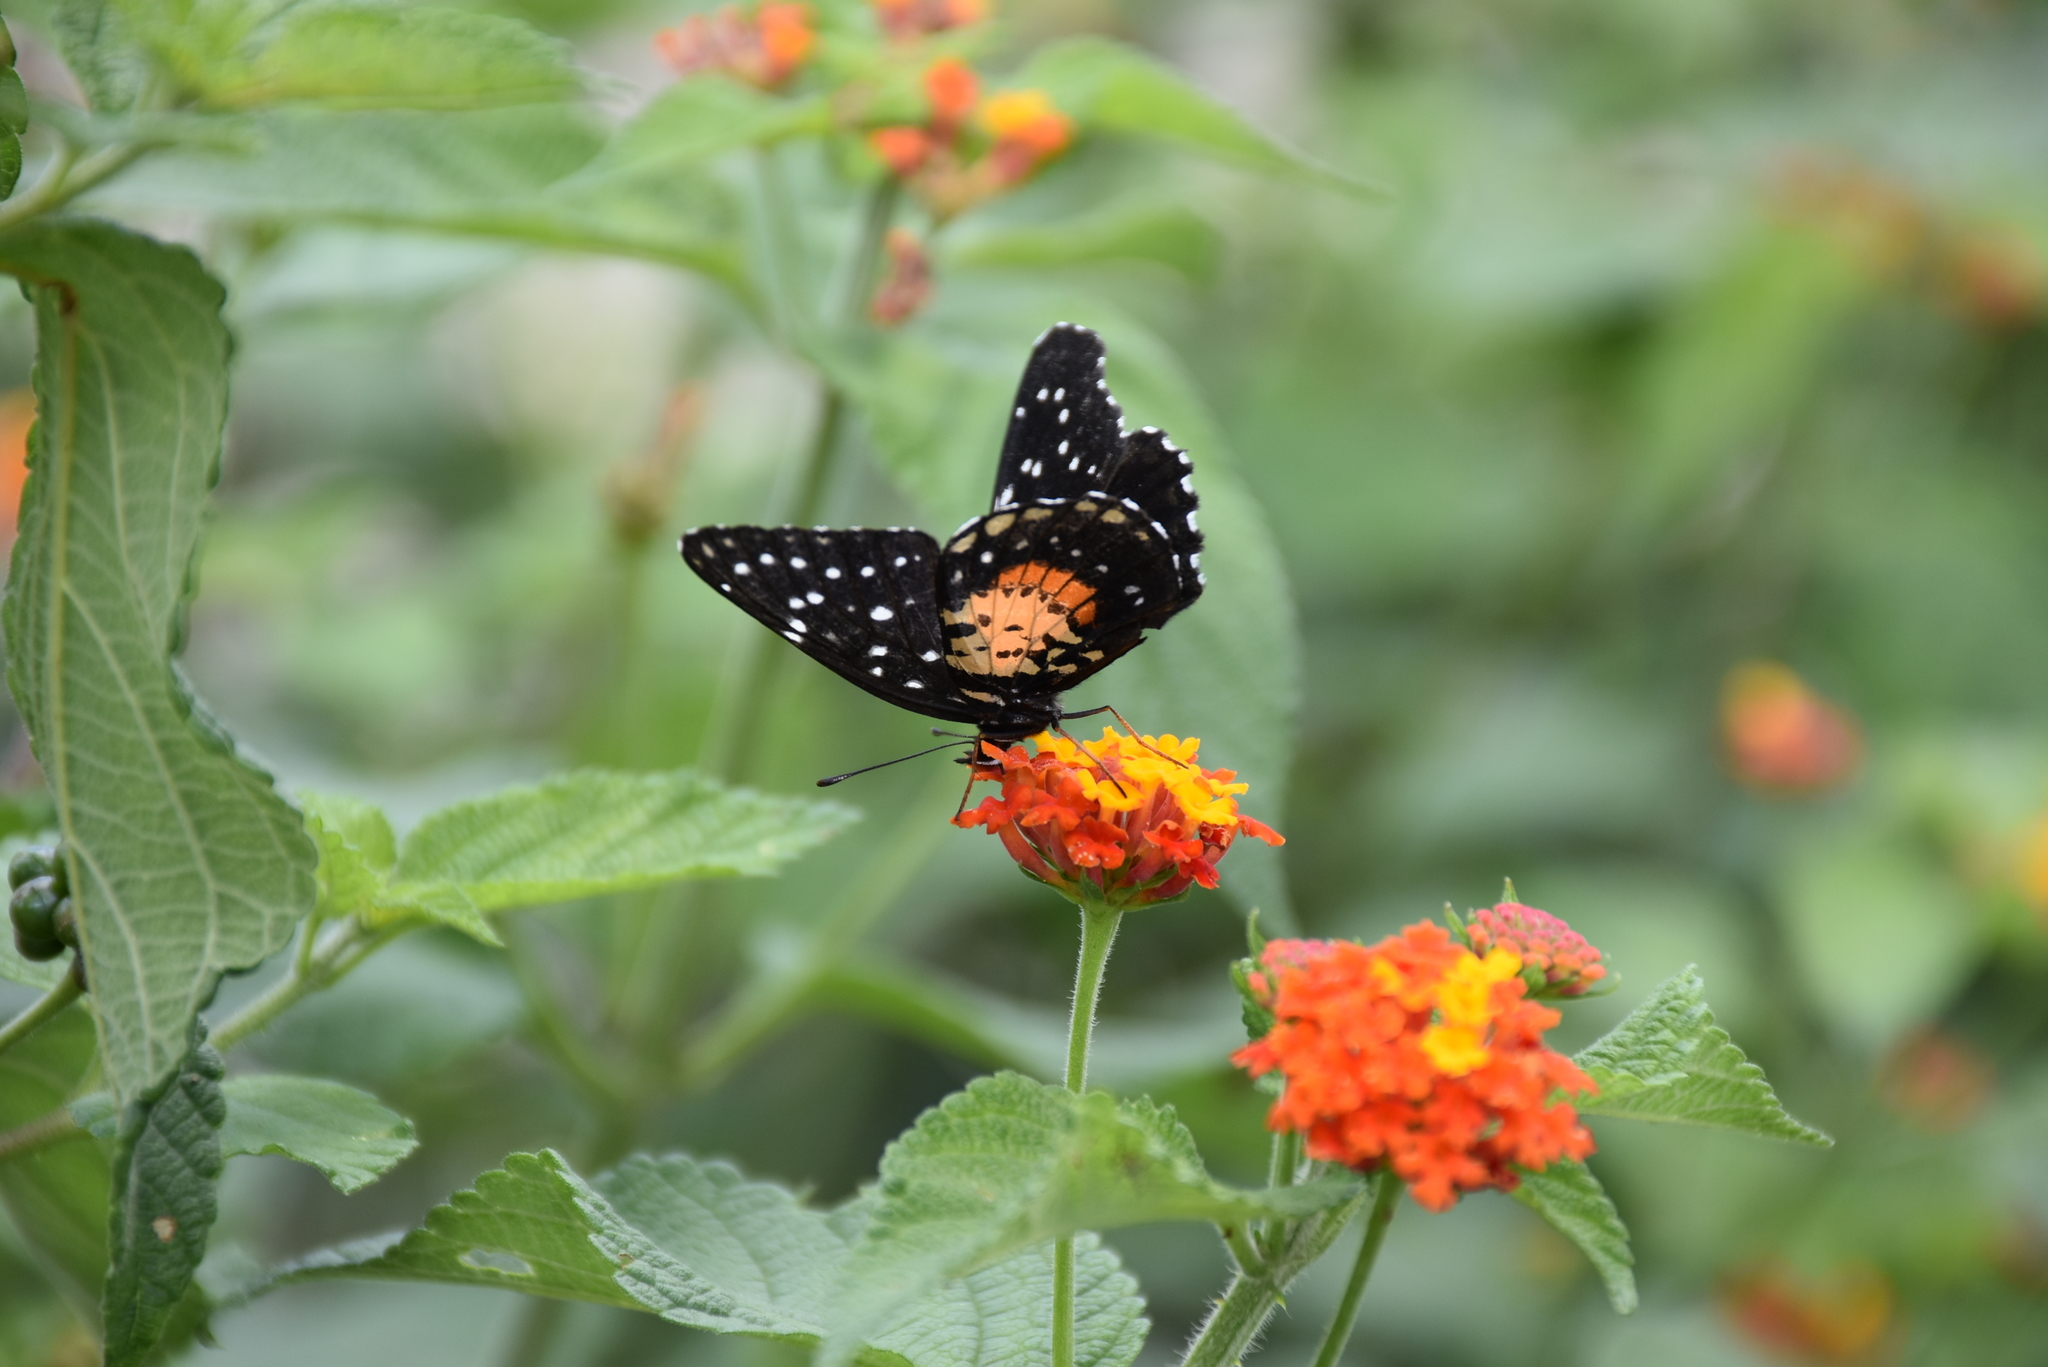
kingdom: Animalia
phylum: Arthropoda
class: Insecta
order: Lepidoptera
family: Nymphalidae
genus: Chlosyne
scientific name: Chlosyne janais
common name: Crimson patch
